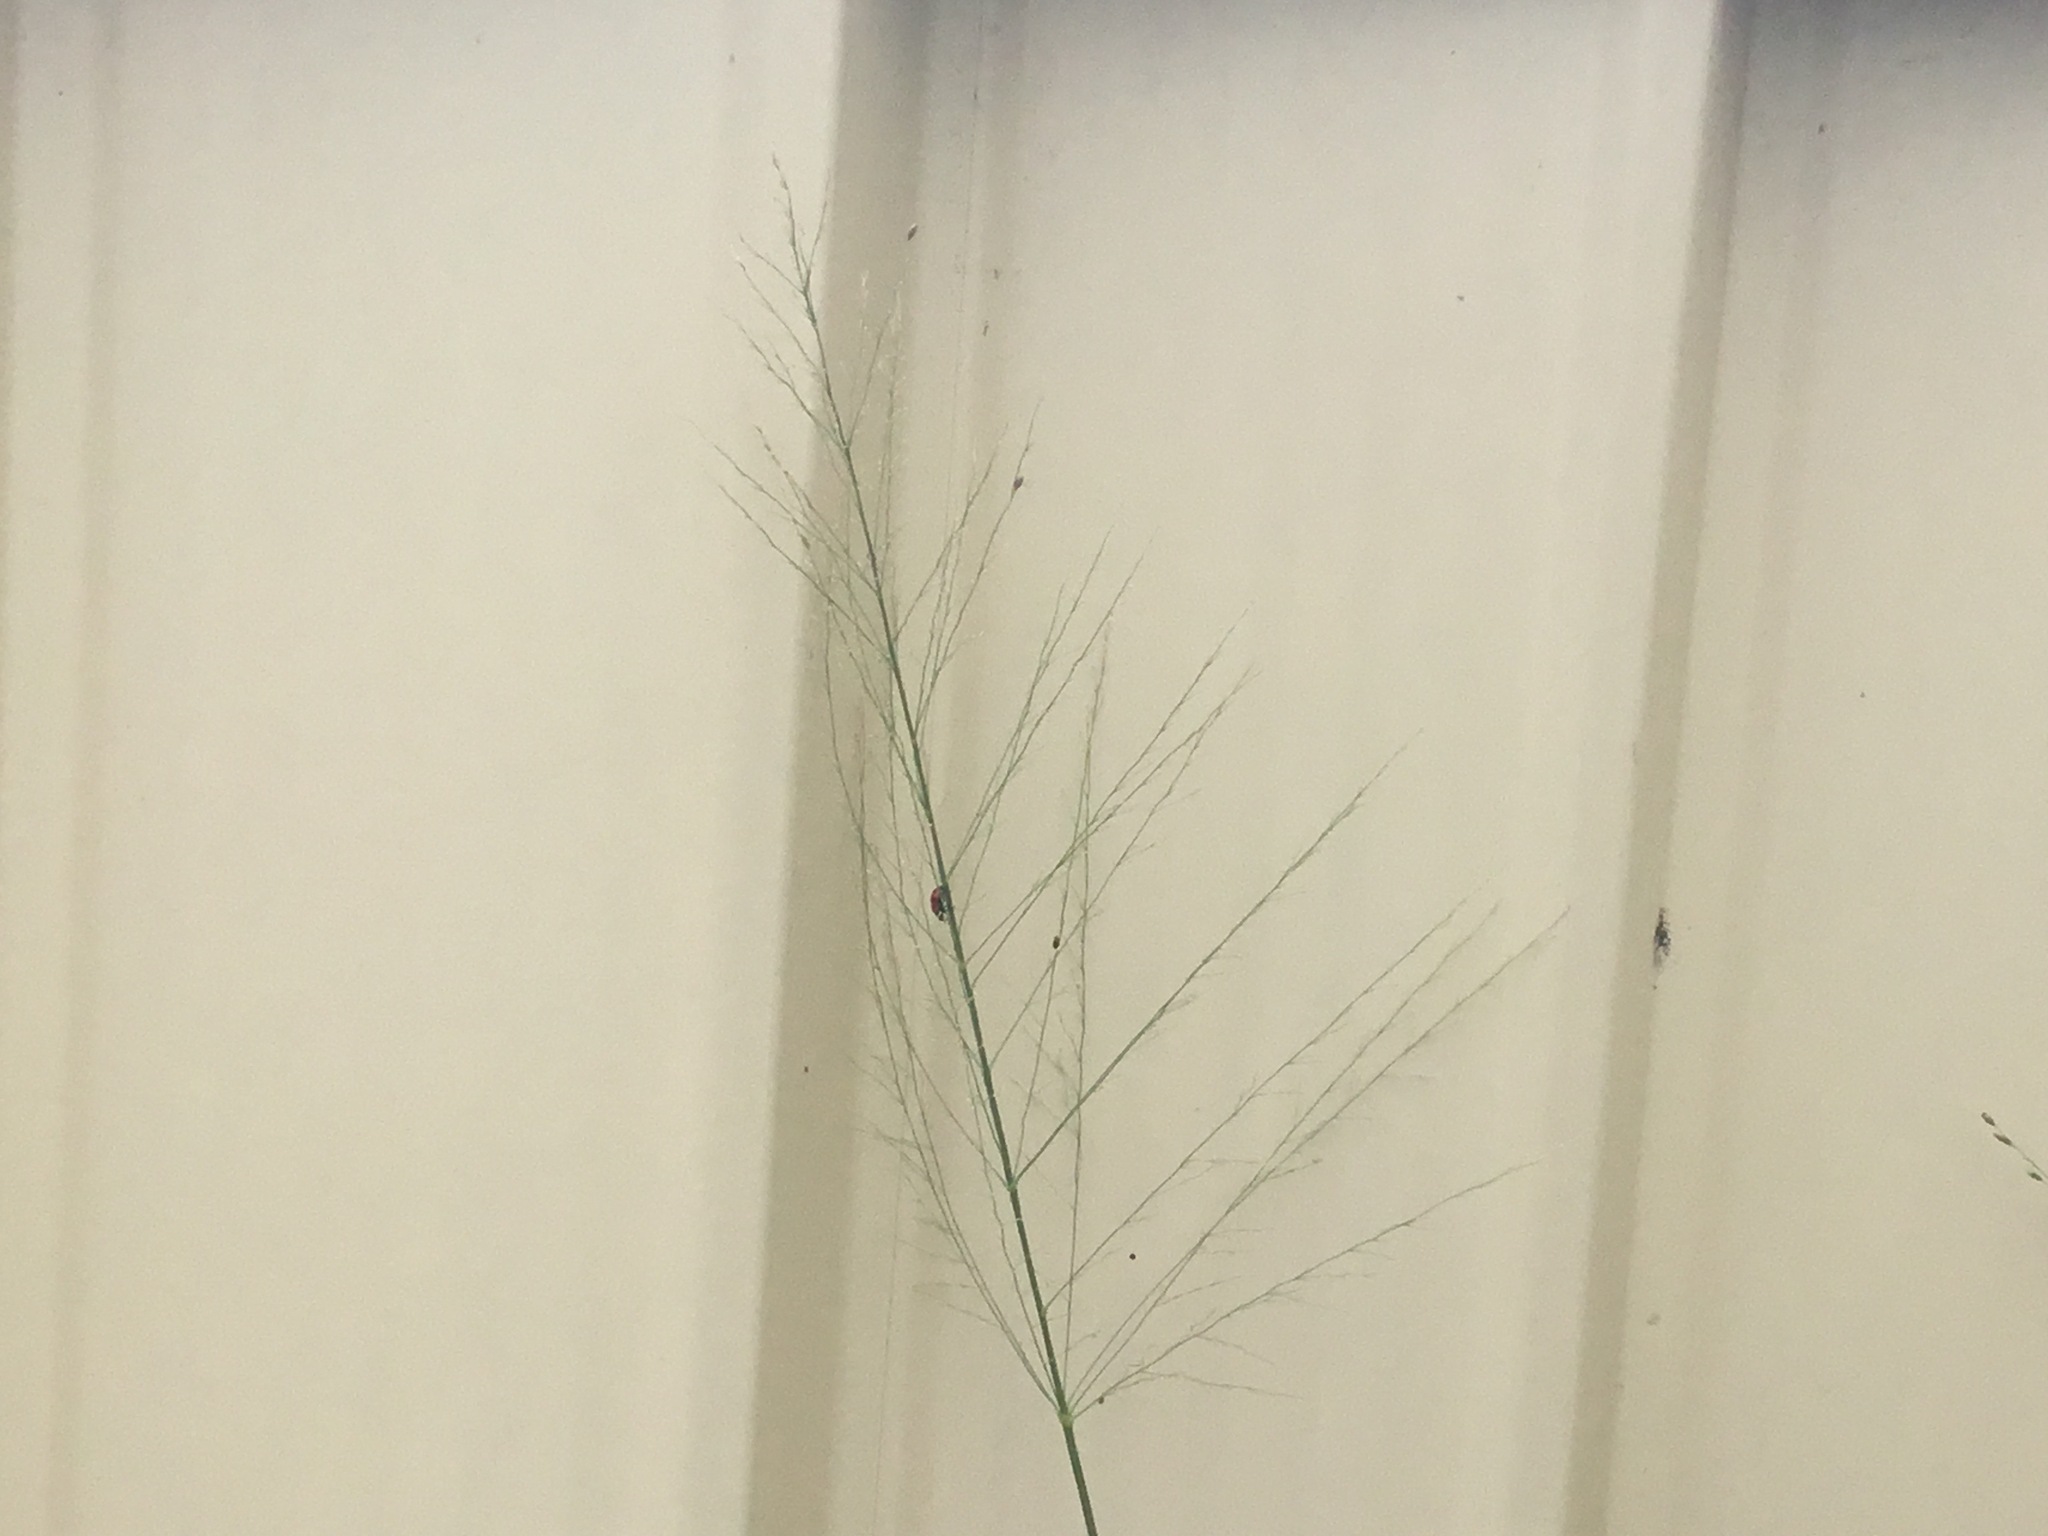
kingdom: Animalia
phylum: Arthropoda
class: Insecta
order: Coleoptera
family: Coccinellidae
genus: Hippodamia
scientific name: Hippodamia variegata
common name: Ladybird beetle
